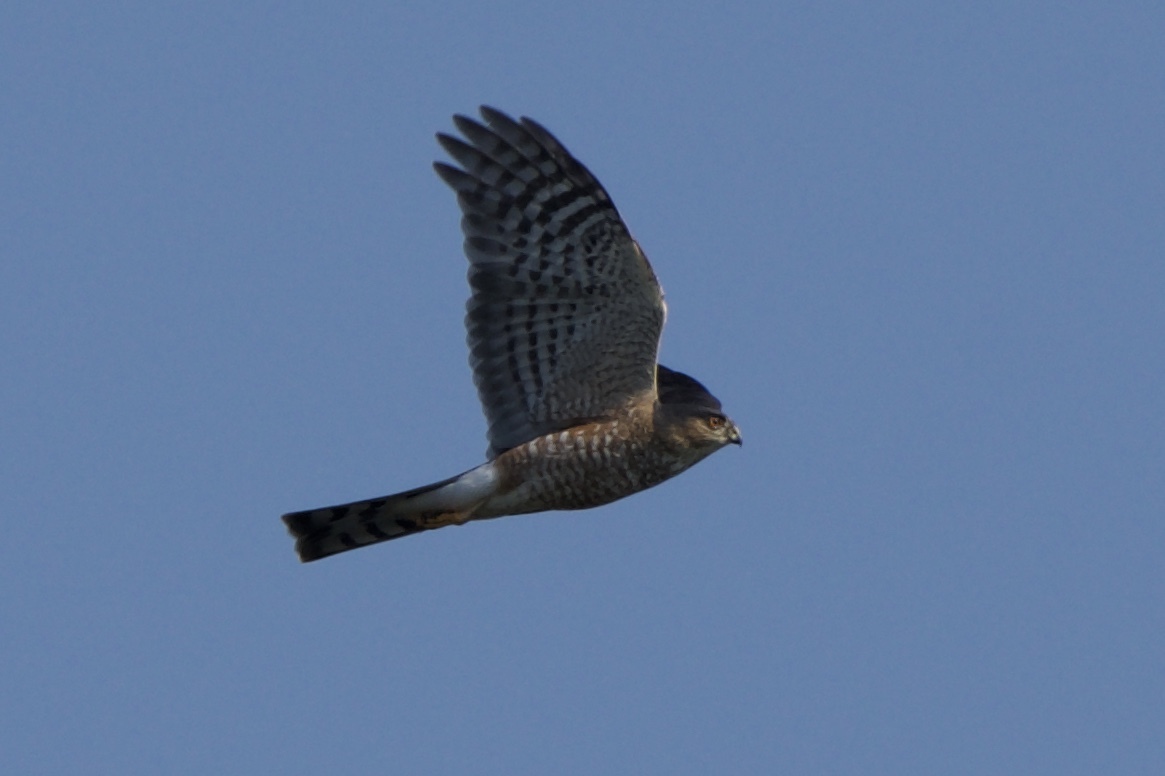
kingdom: Animalia
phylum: Chordata
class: Aves
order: Accipitriformes
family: Accipitridae
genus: Accipiter
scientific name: Accipiter striatus
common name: Sharp-shinned hawk
